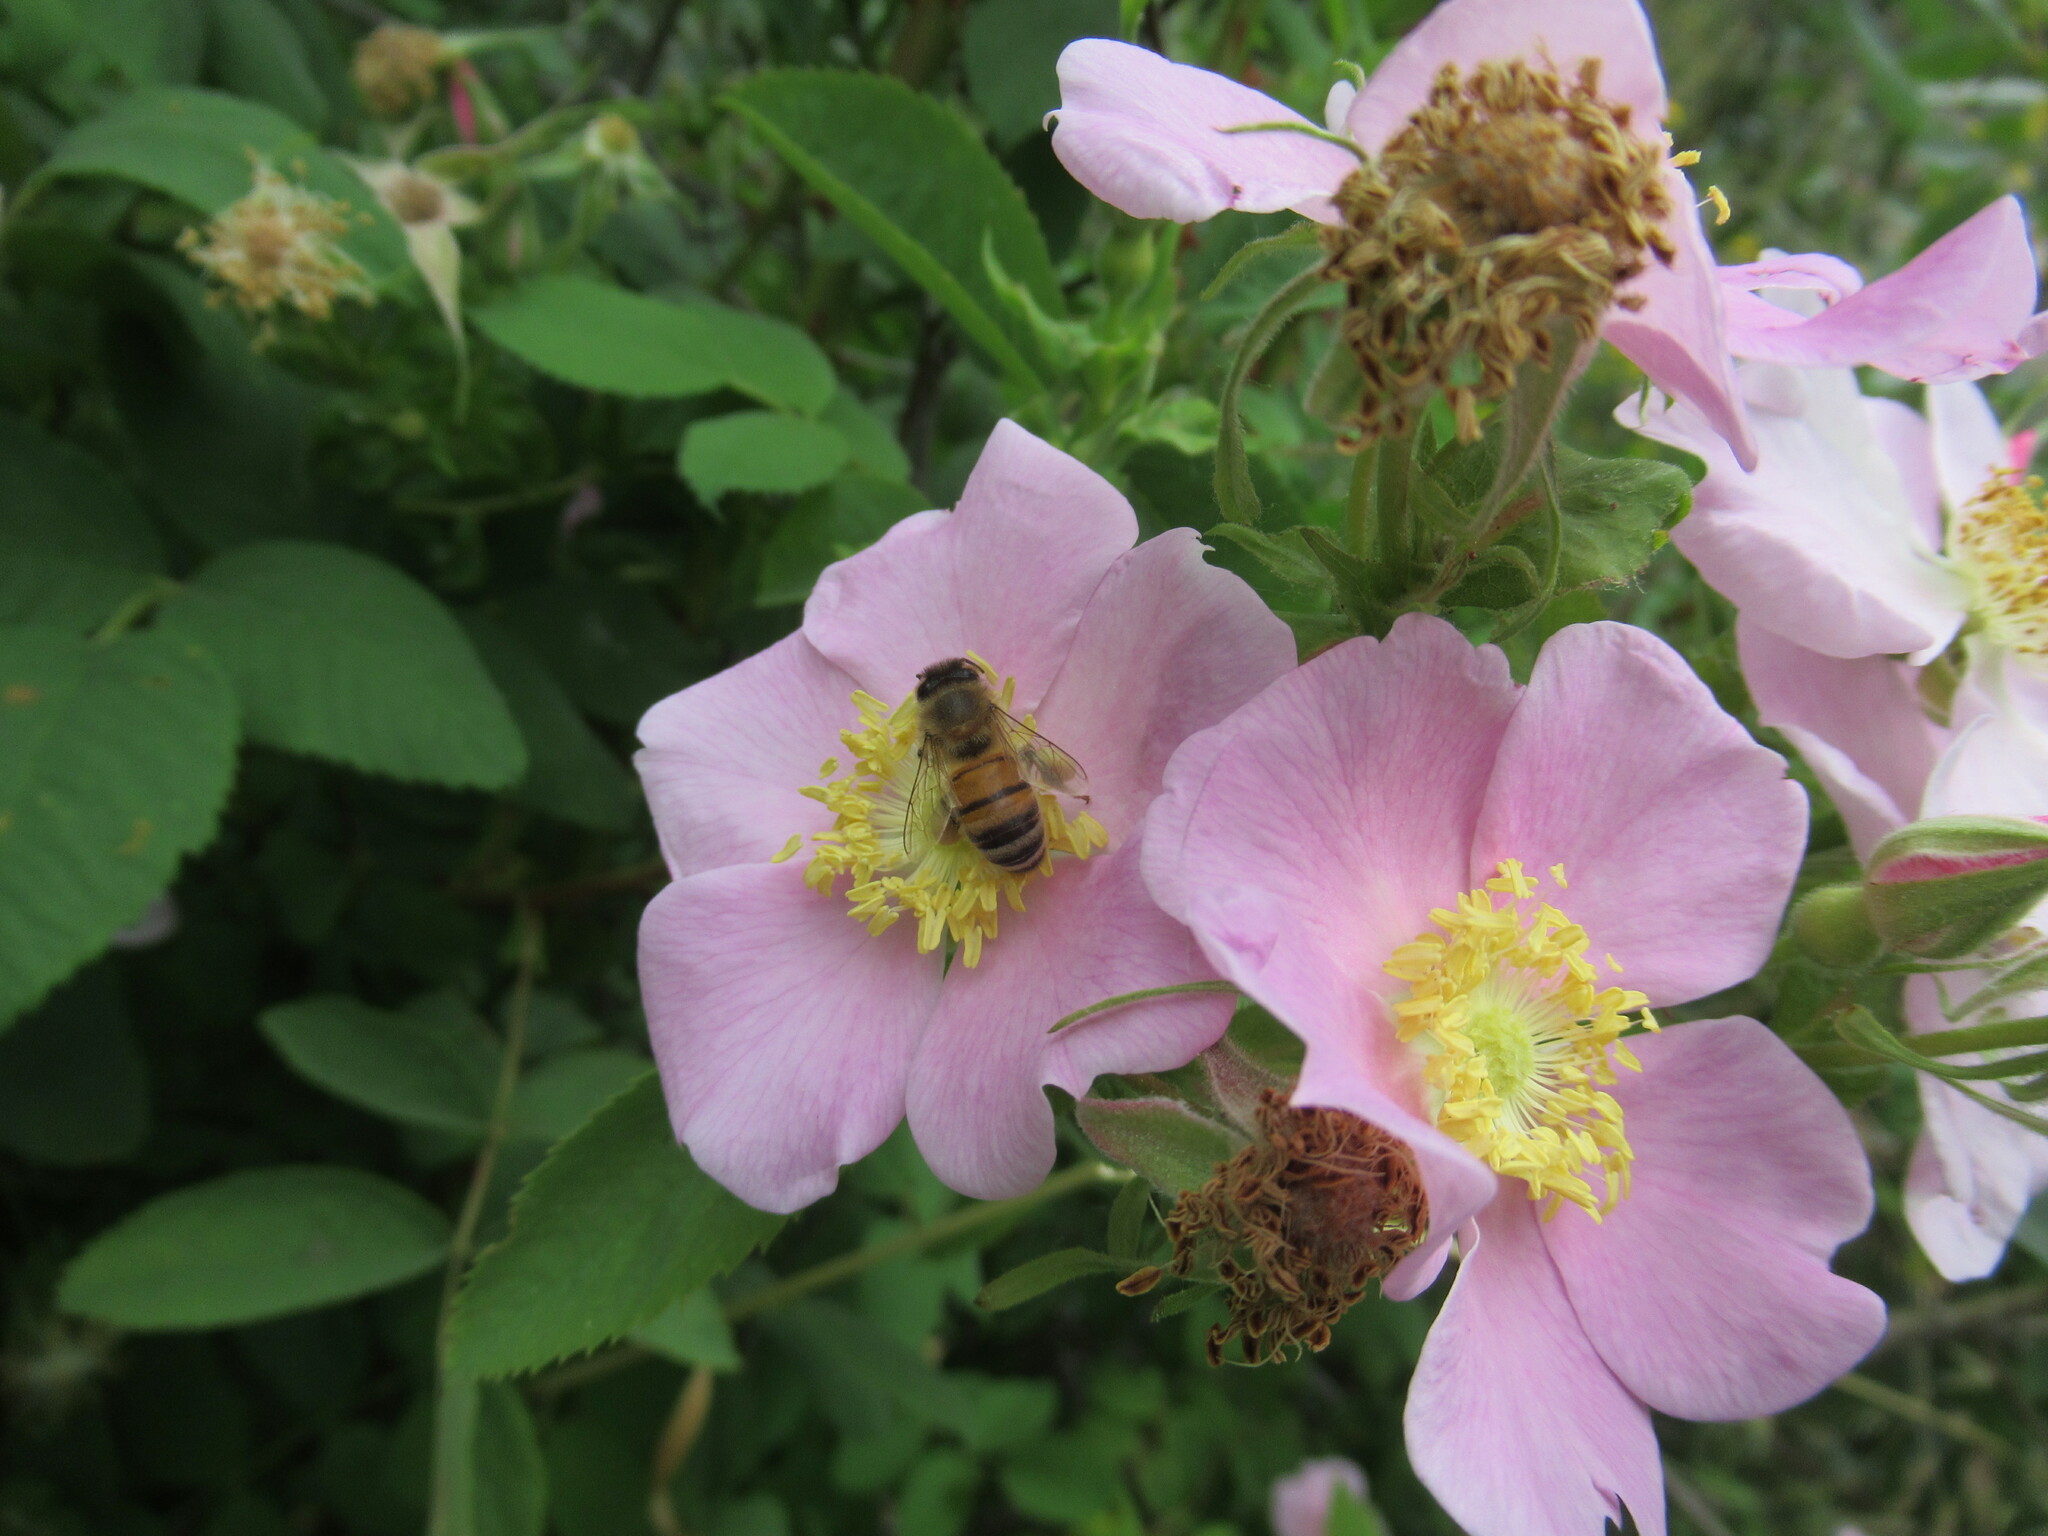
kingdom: Animalia
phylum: Arthropoda
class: Insecta
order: Hymenoptera
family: Apidae
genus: Apis
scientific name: Apis mellifera
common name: Honey bee
